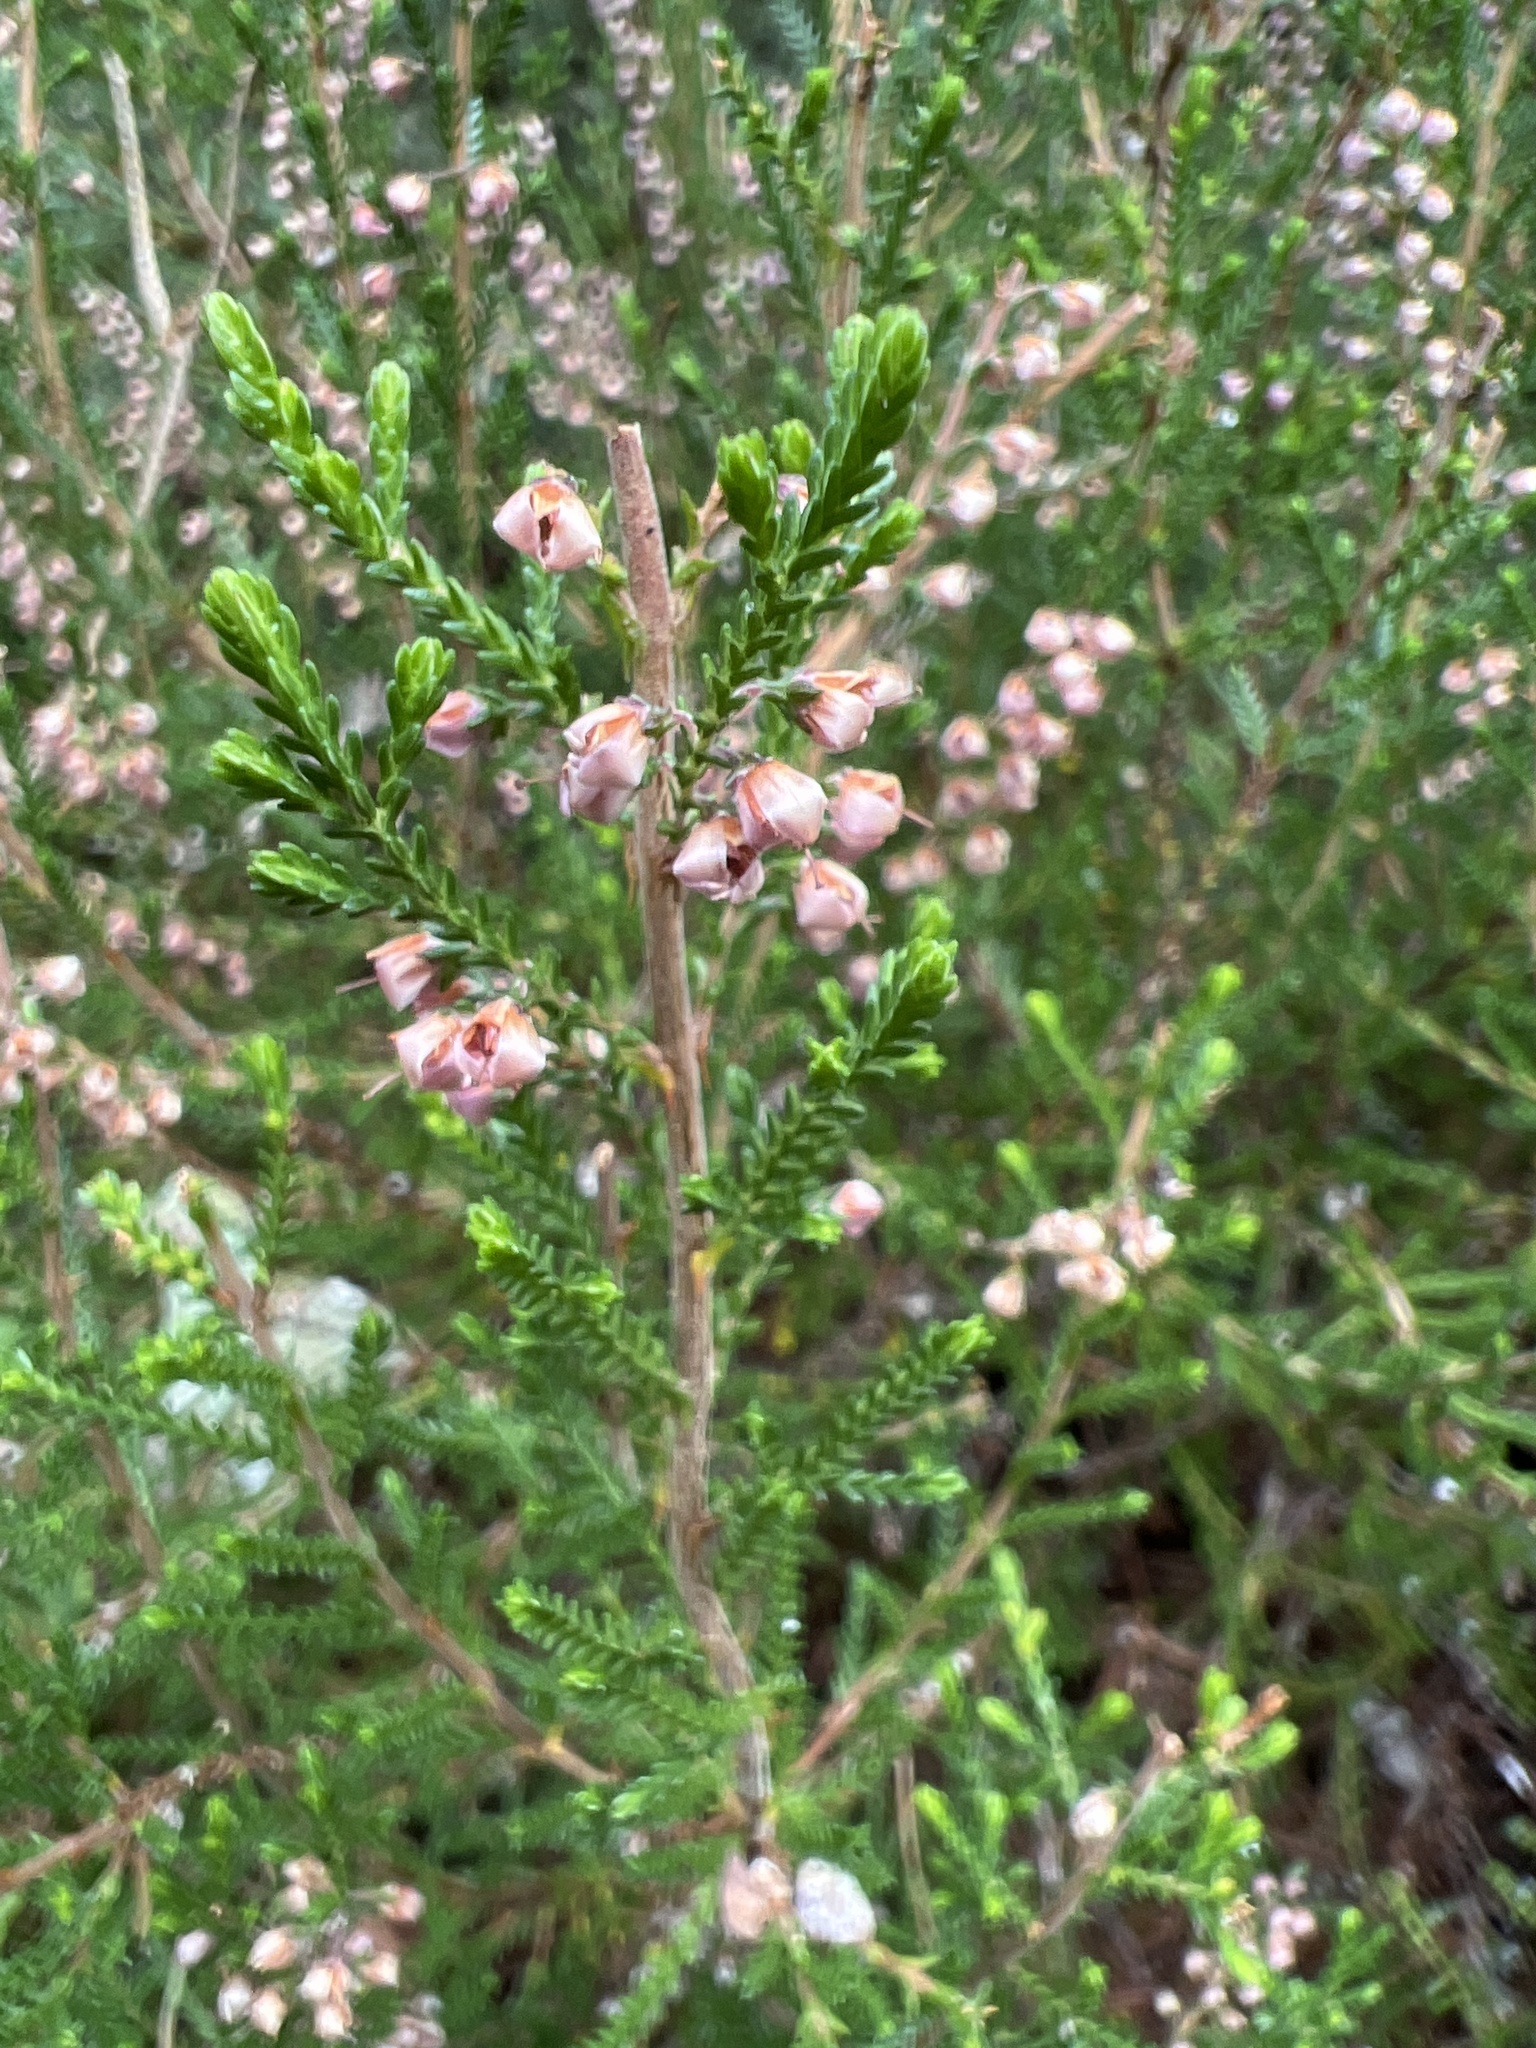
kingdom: Plantae
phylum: Tracheophyta
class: Magnoliopsida
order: Ericales
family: Ericaceae
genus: Calluna
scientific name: Calluna vulgaris
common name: Heather
